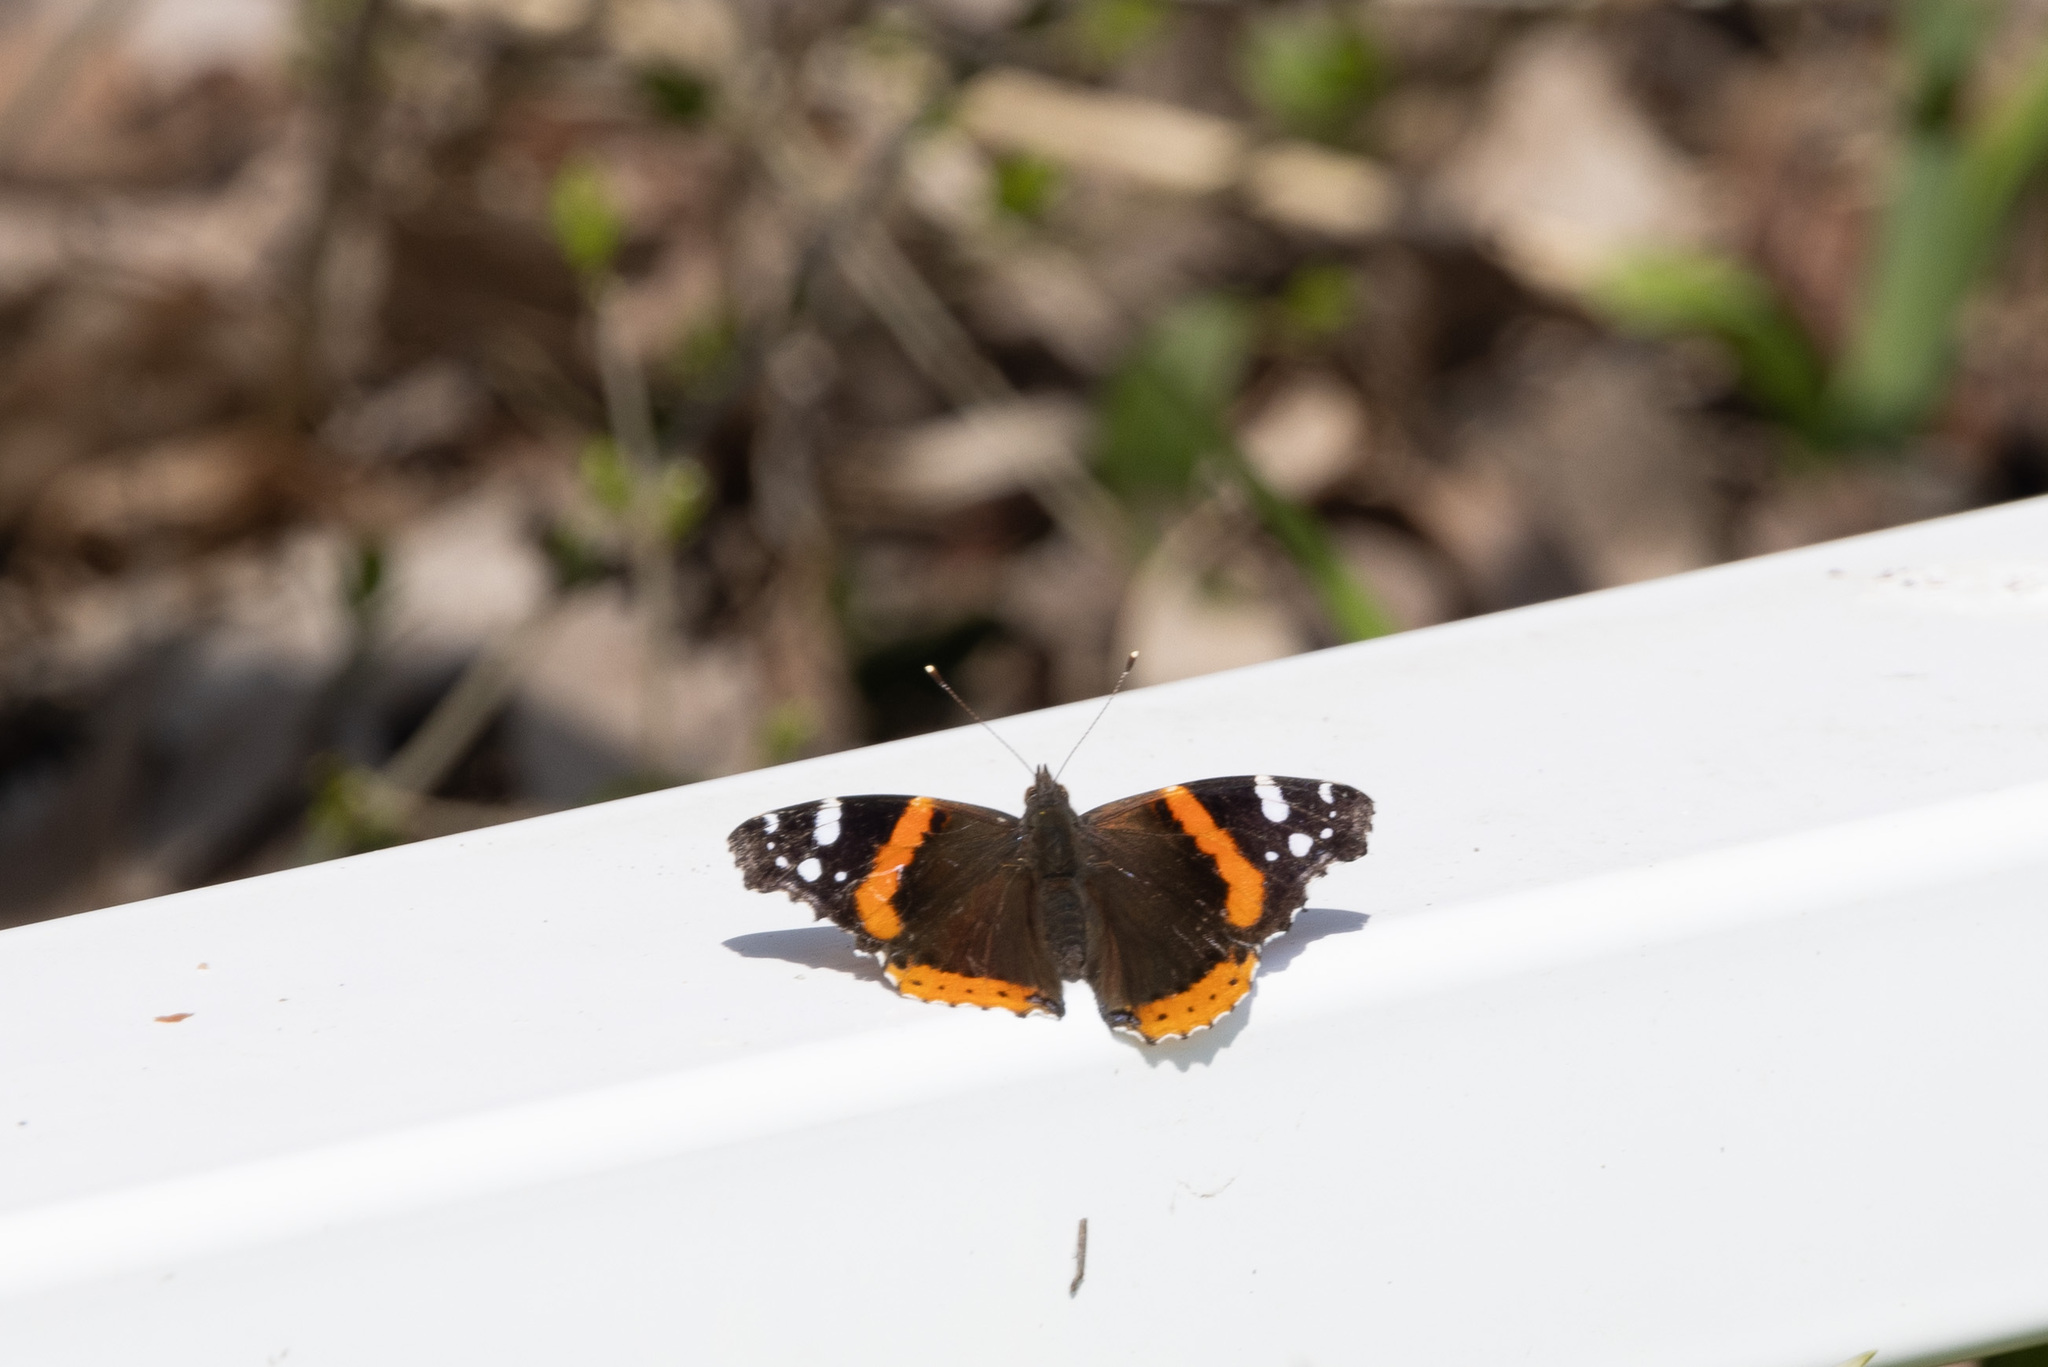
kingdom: Animalia
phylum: Arthropoda
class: Insecta
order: Lepidoptera
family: Nymphalidae
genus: Vanessa
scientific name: Vanessa atalanta
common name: Red admiral
